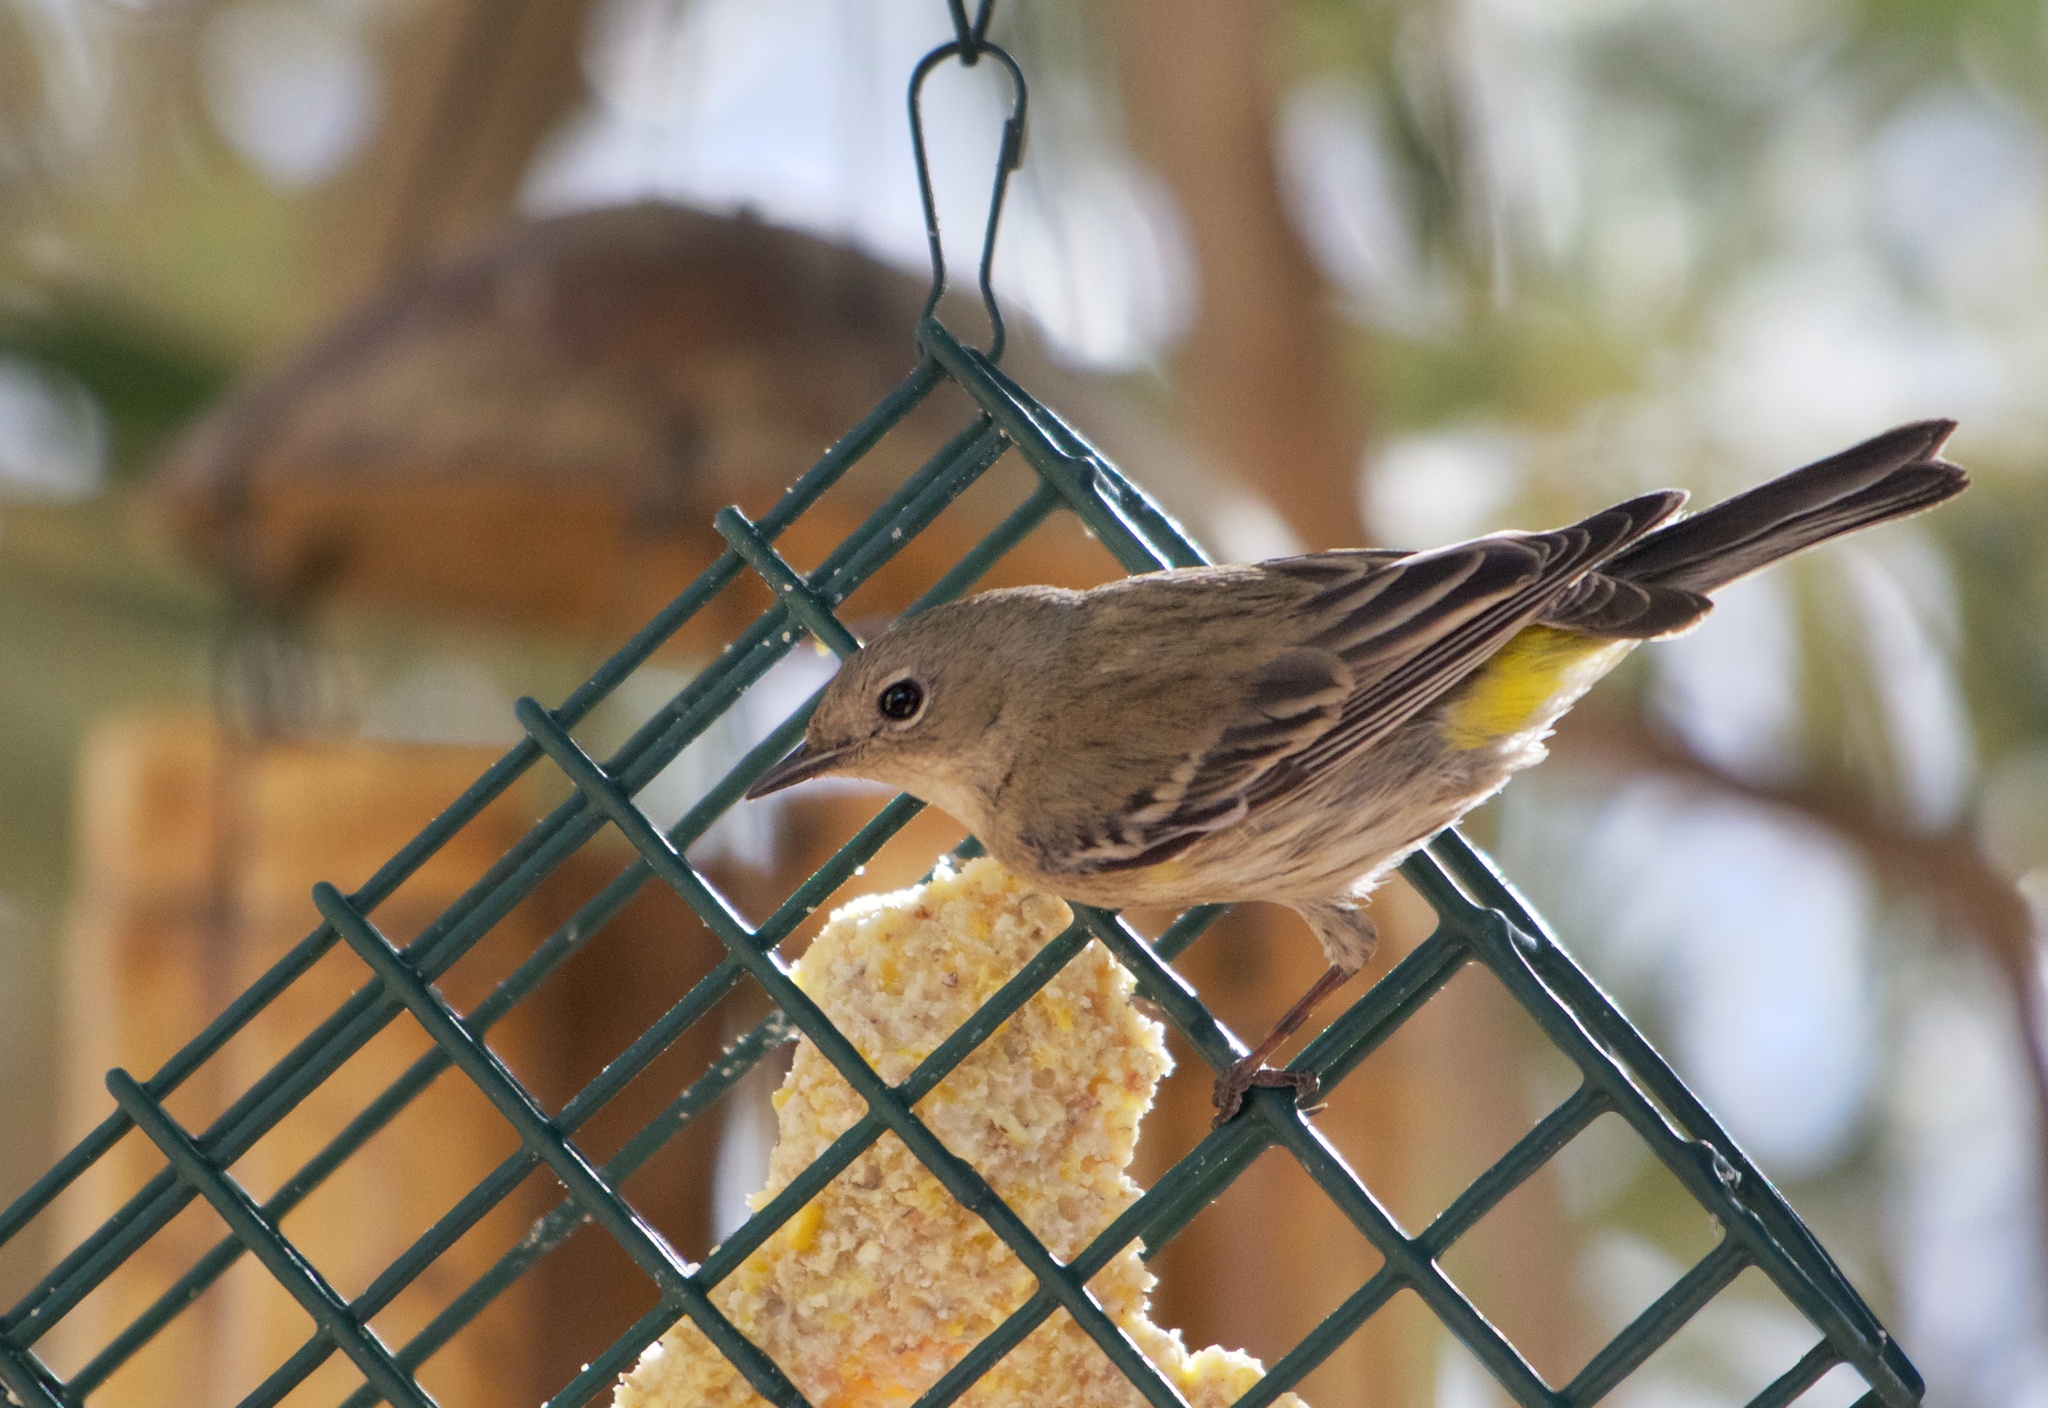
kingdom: Animalia
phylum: Chordata
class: Aves
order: Passeriformes
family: Parulidae
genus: Setophaga
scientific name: Setophaga coronata
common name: Myrtle warbler
